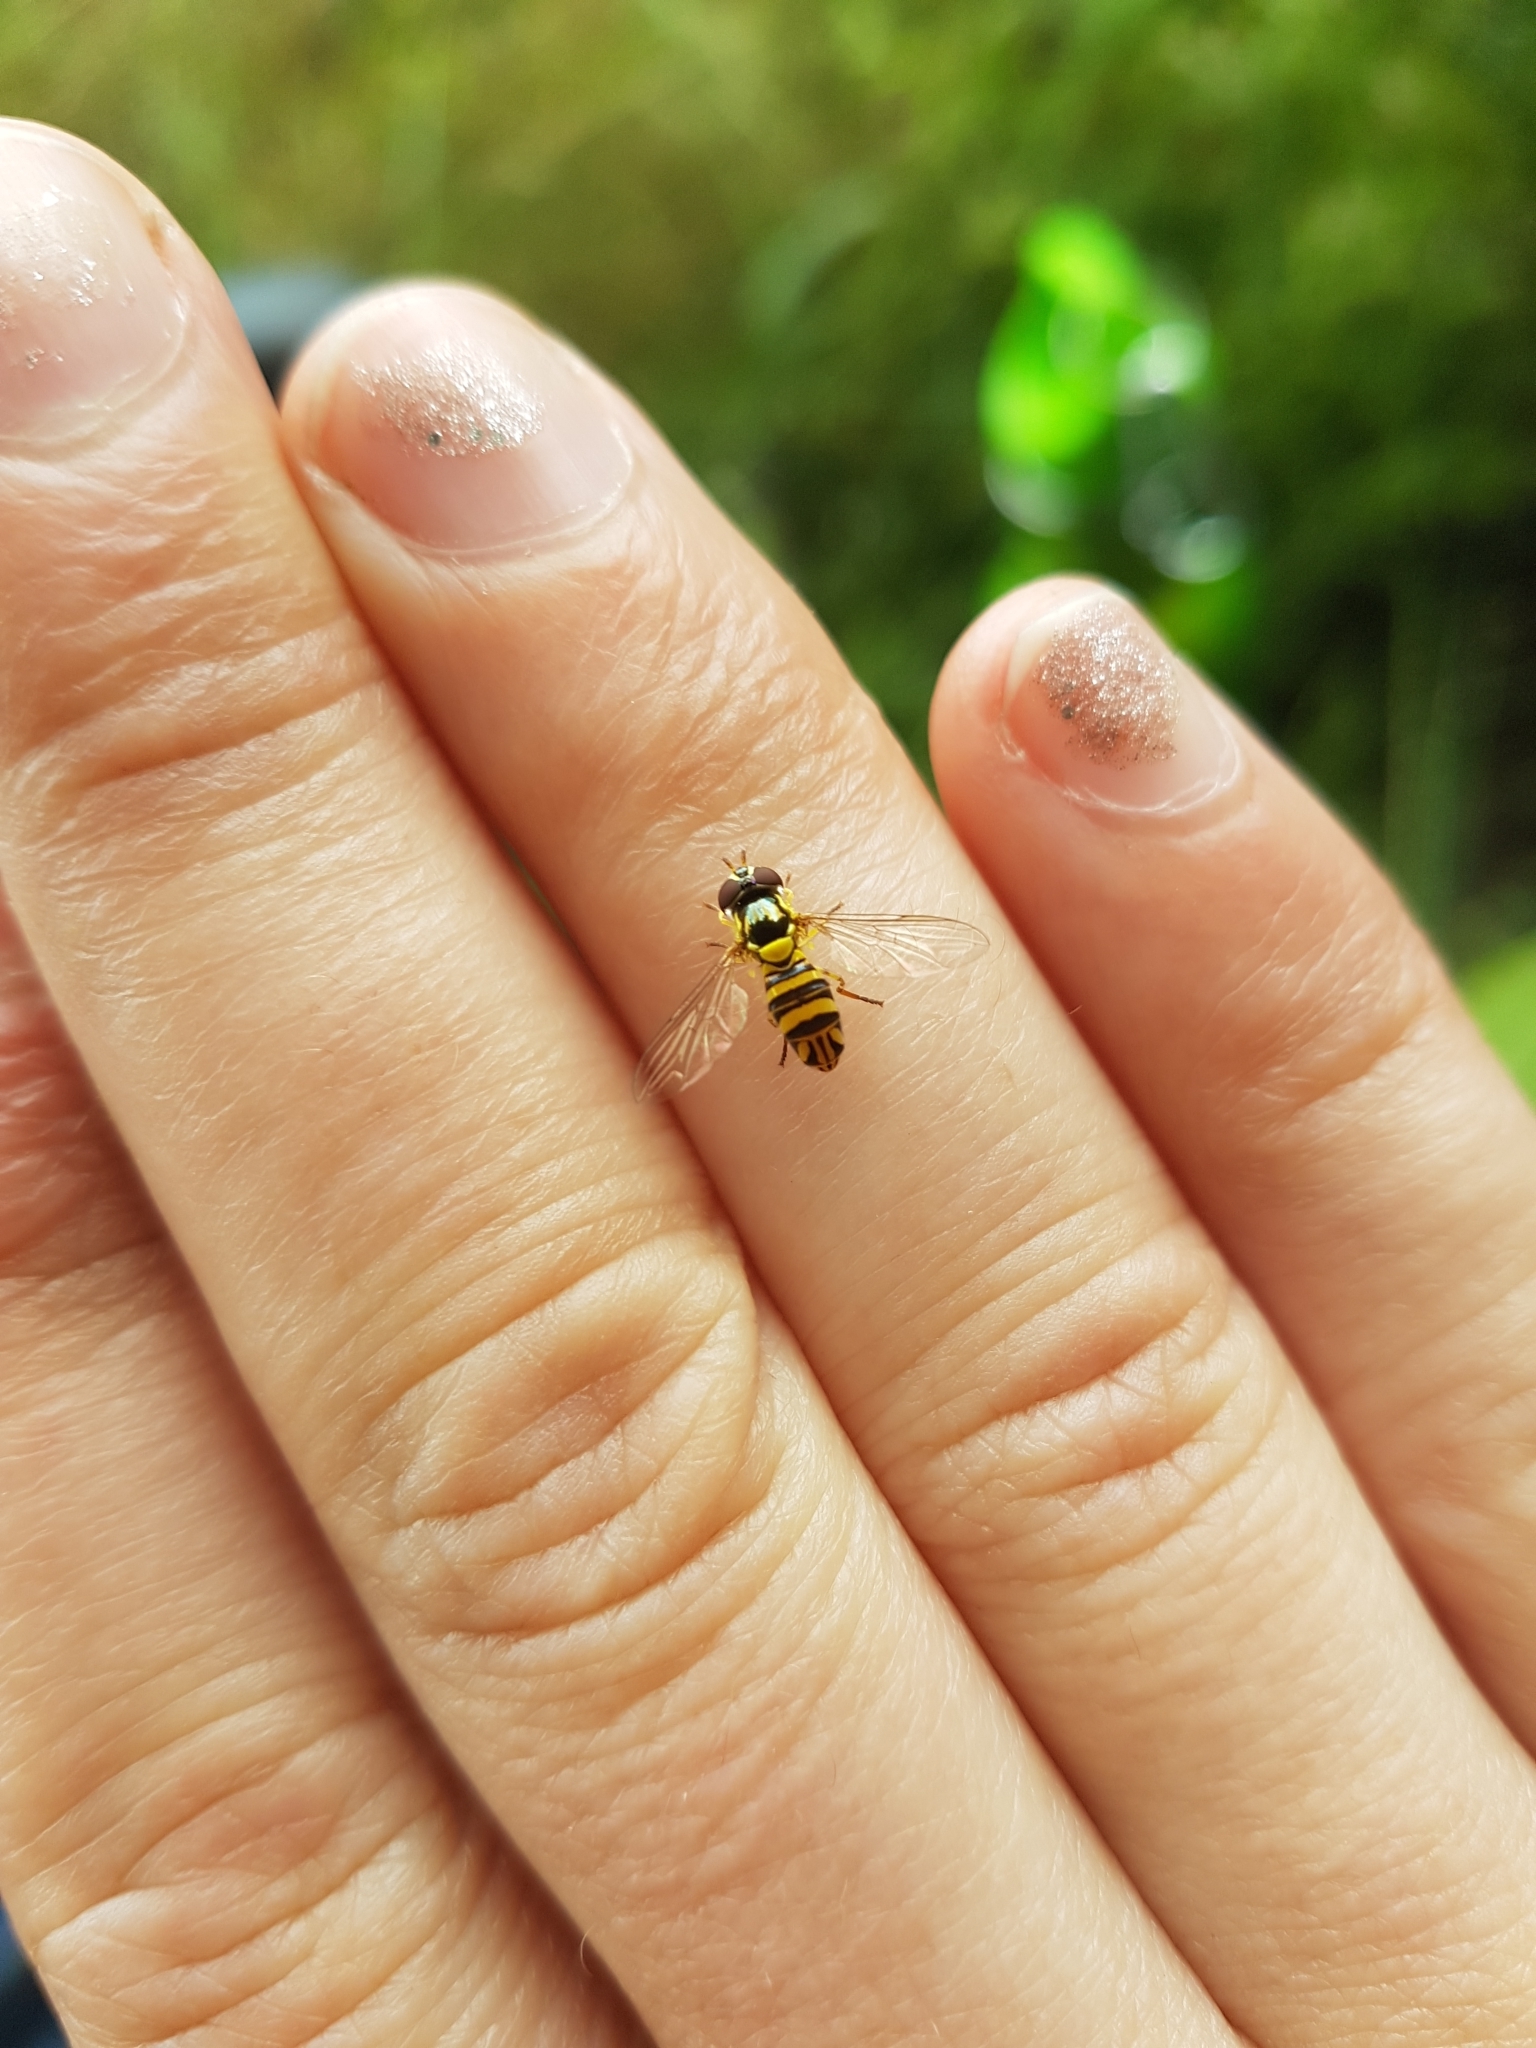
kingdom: Animalia
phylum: Arthropoda
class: Insecta
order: Diptera
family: Syrphidae
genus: Allograpta
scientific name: Allograpta obliqua
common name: Common oblique syrphid
